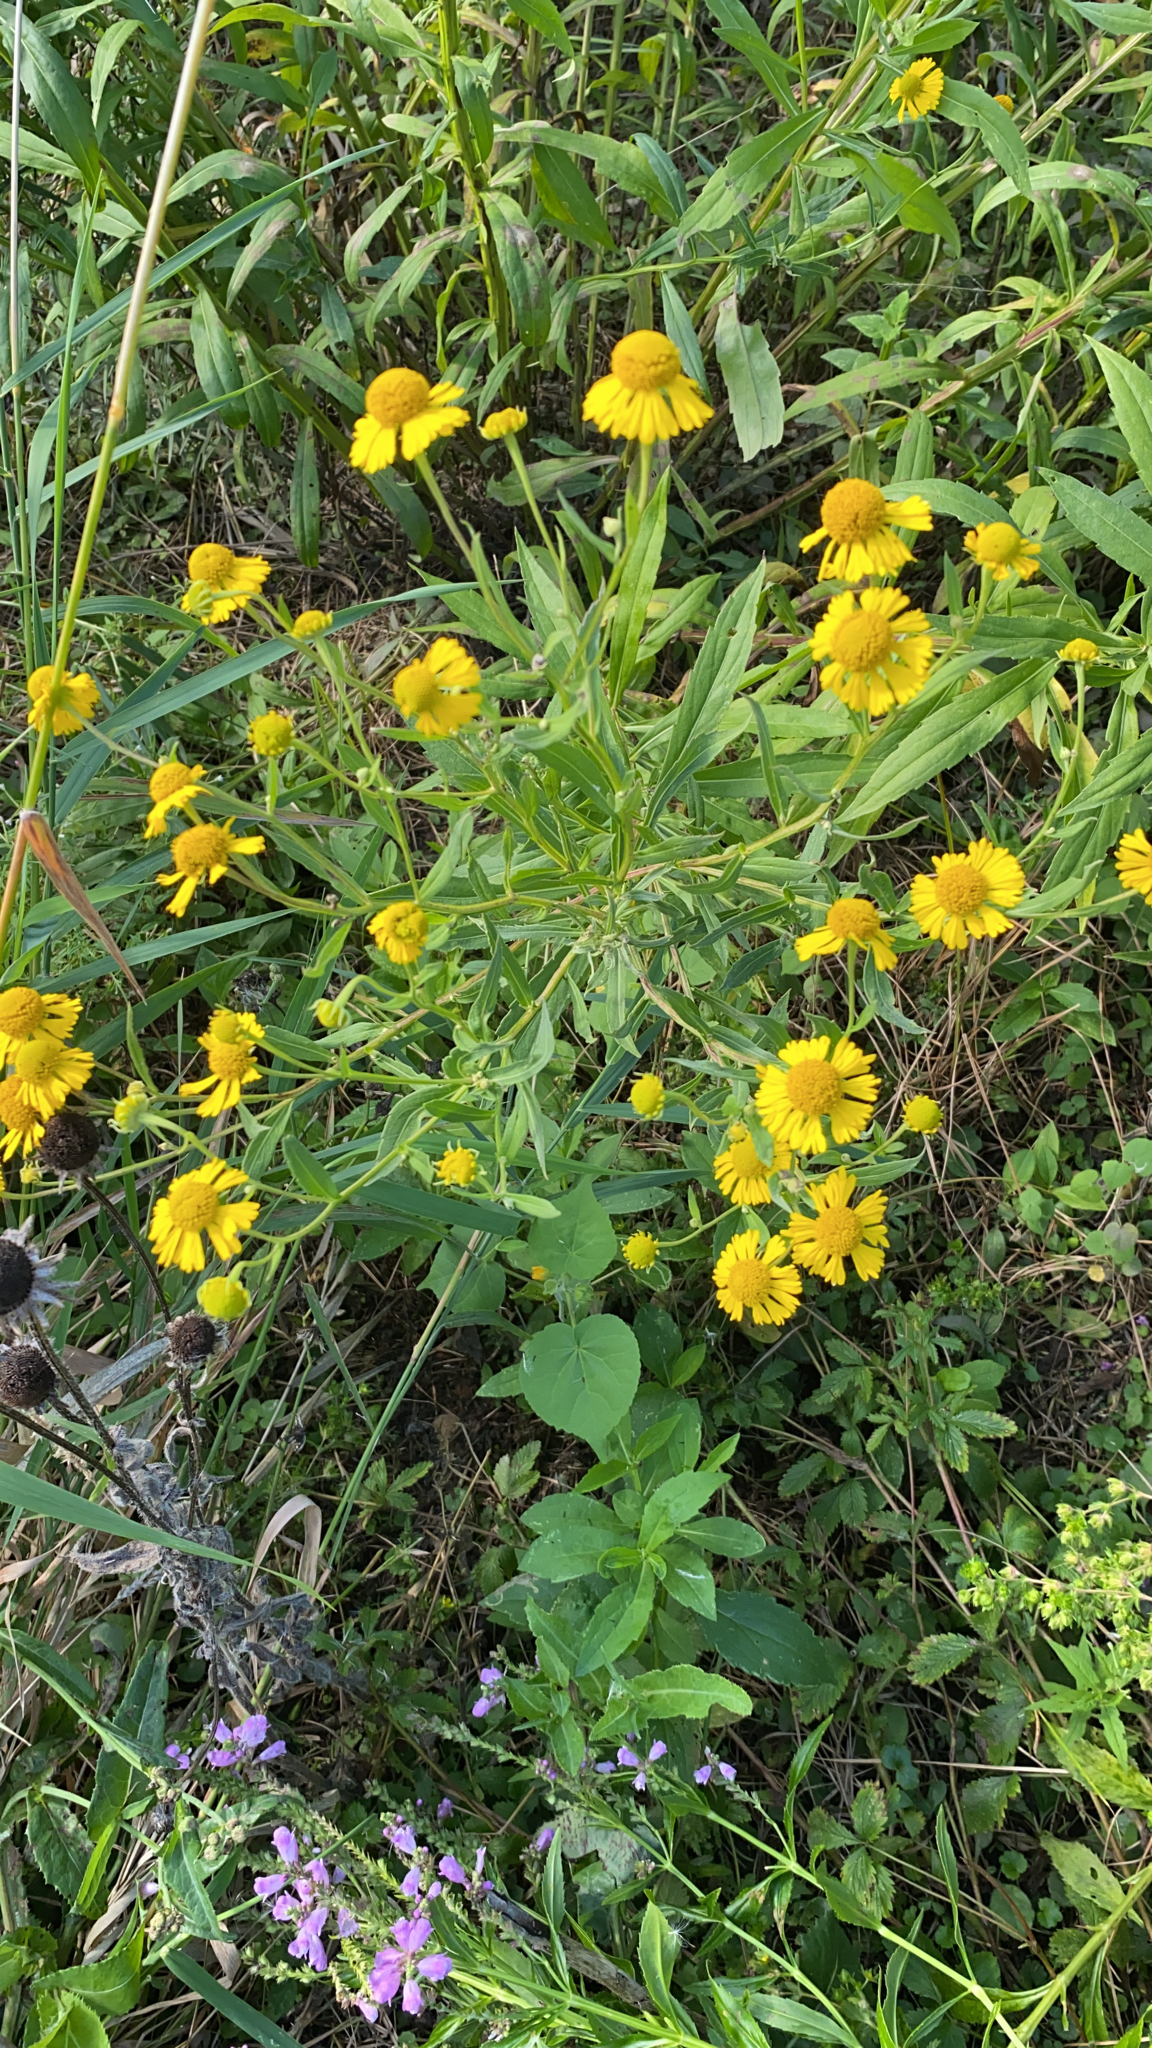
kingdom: Plantae
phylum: Tracheophyta
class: Magnoliopsida
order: Asterales
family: Asteraceae
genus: Helenium
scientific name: Helenium autumnale
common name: Sneezeweed
